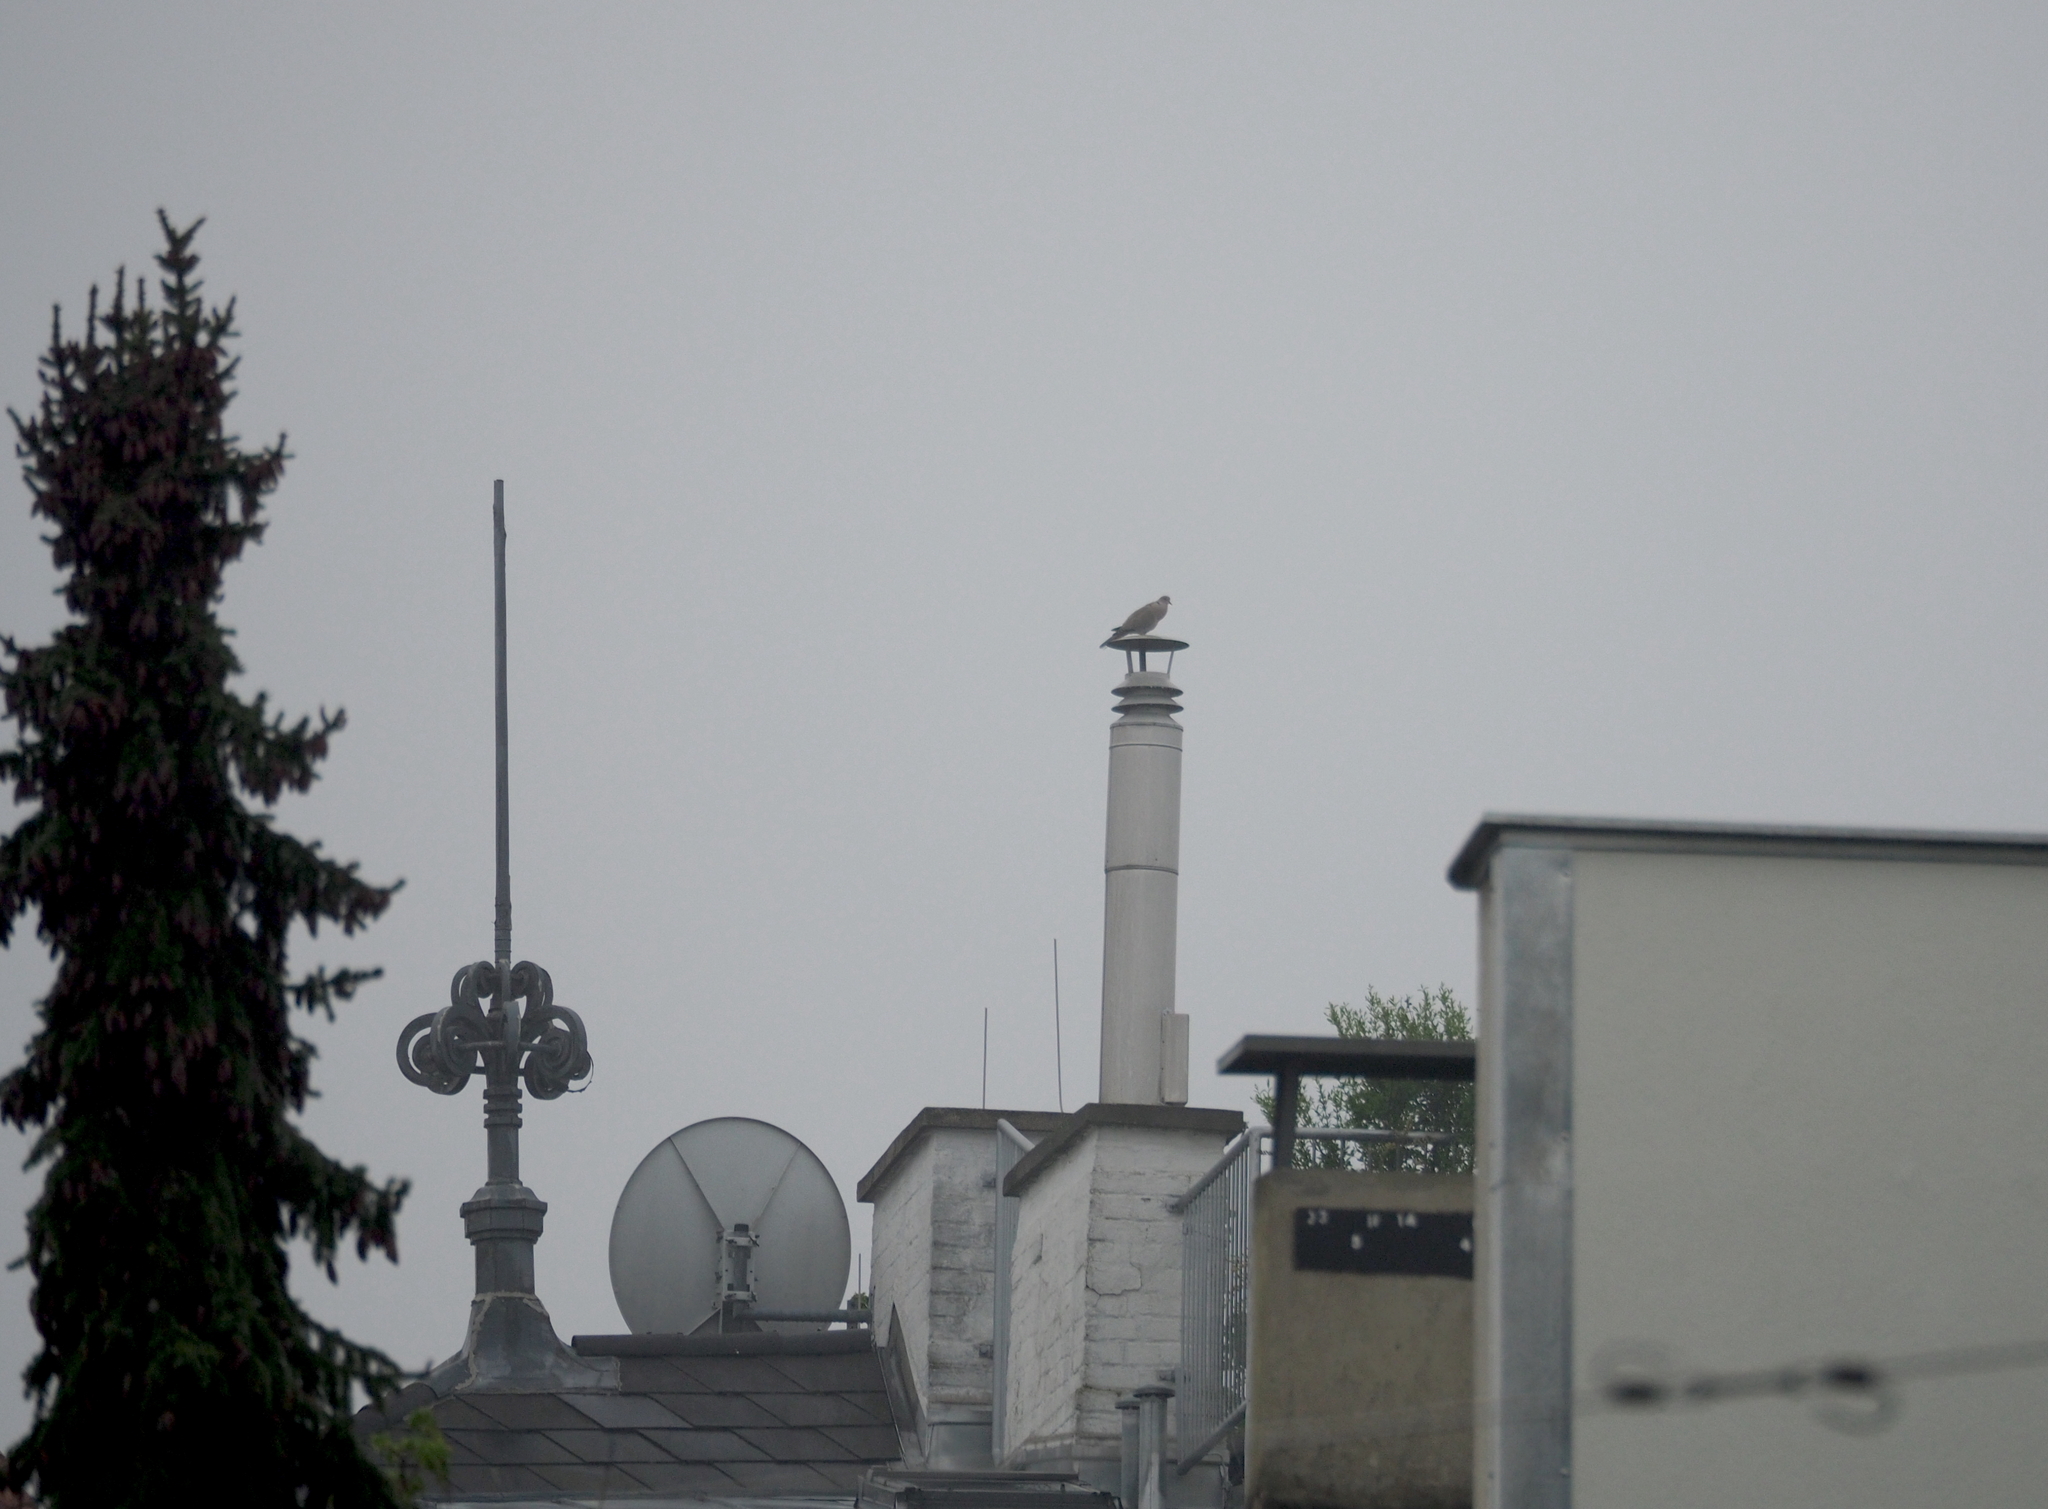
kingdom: Animalia
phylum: Chordata
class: Aves
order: Columbiformes
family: Columbidae
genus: Streptopelia
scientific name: Streptopelia decaocto
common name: Eurasian collared dove
